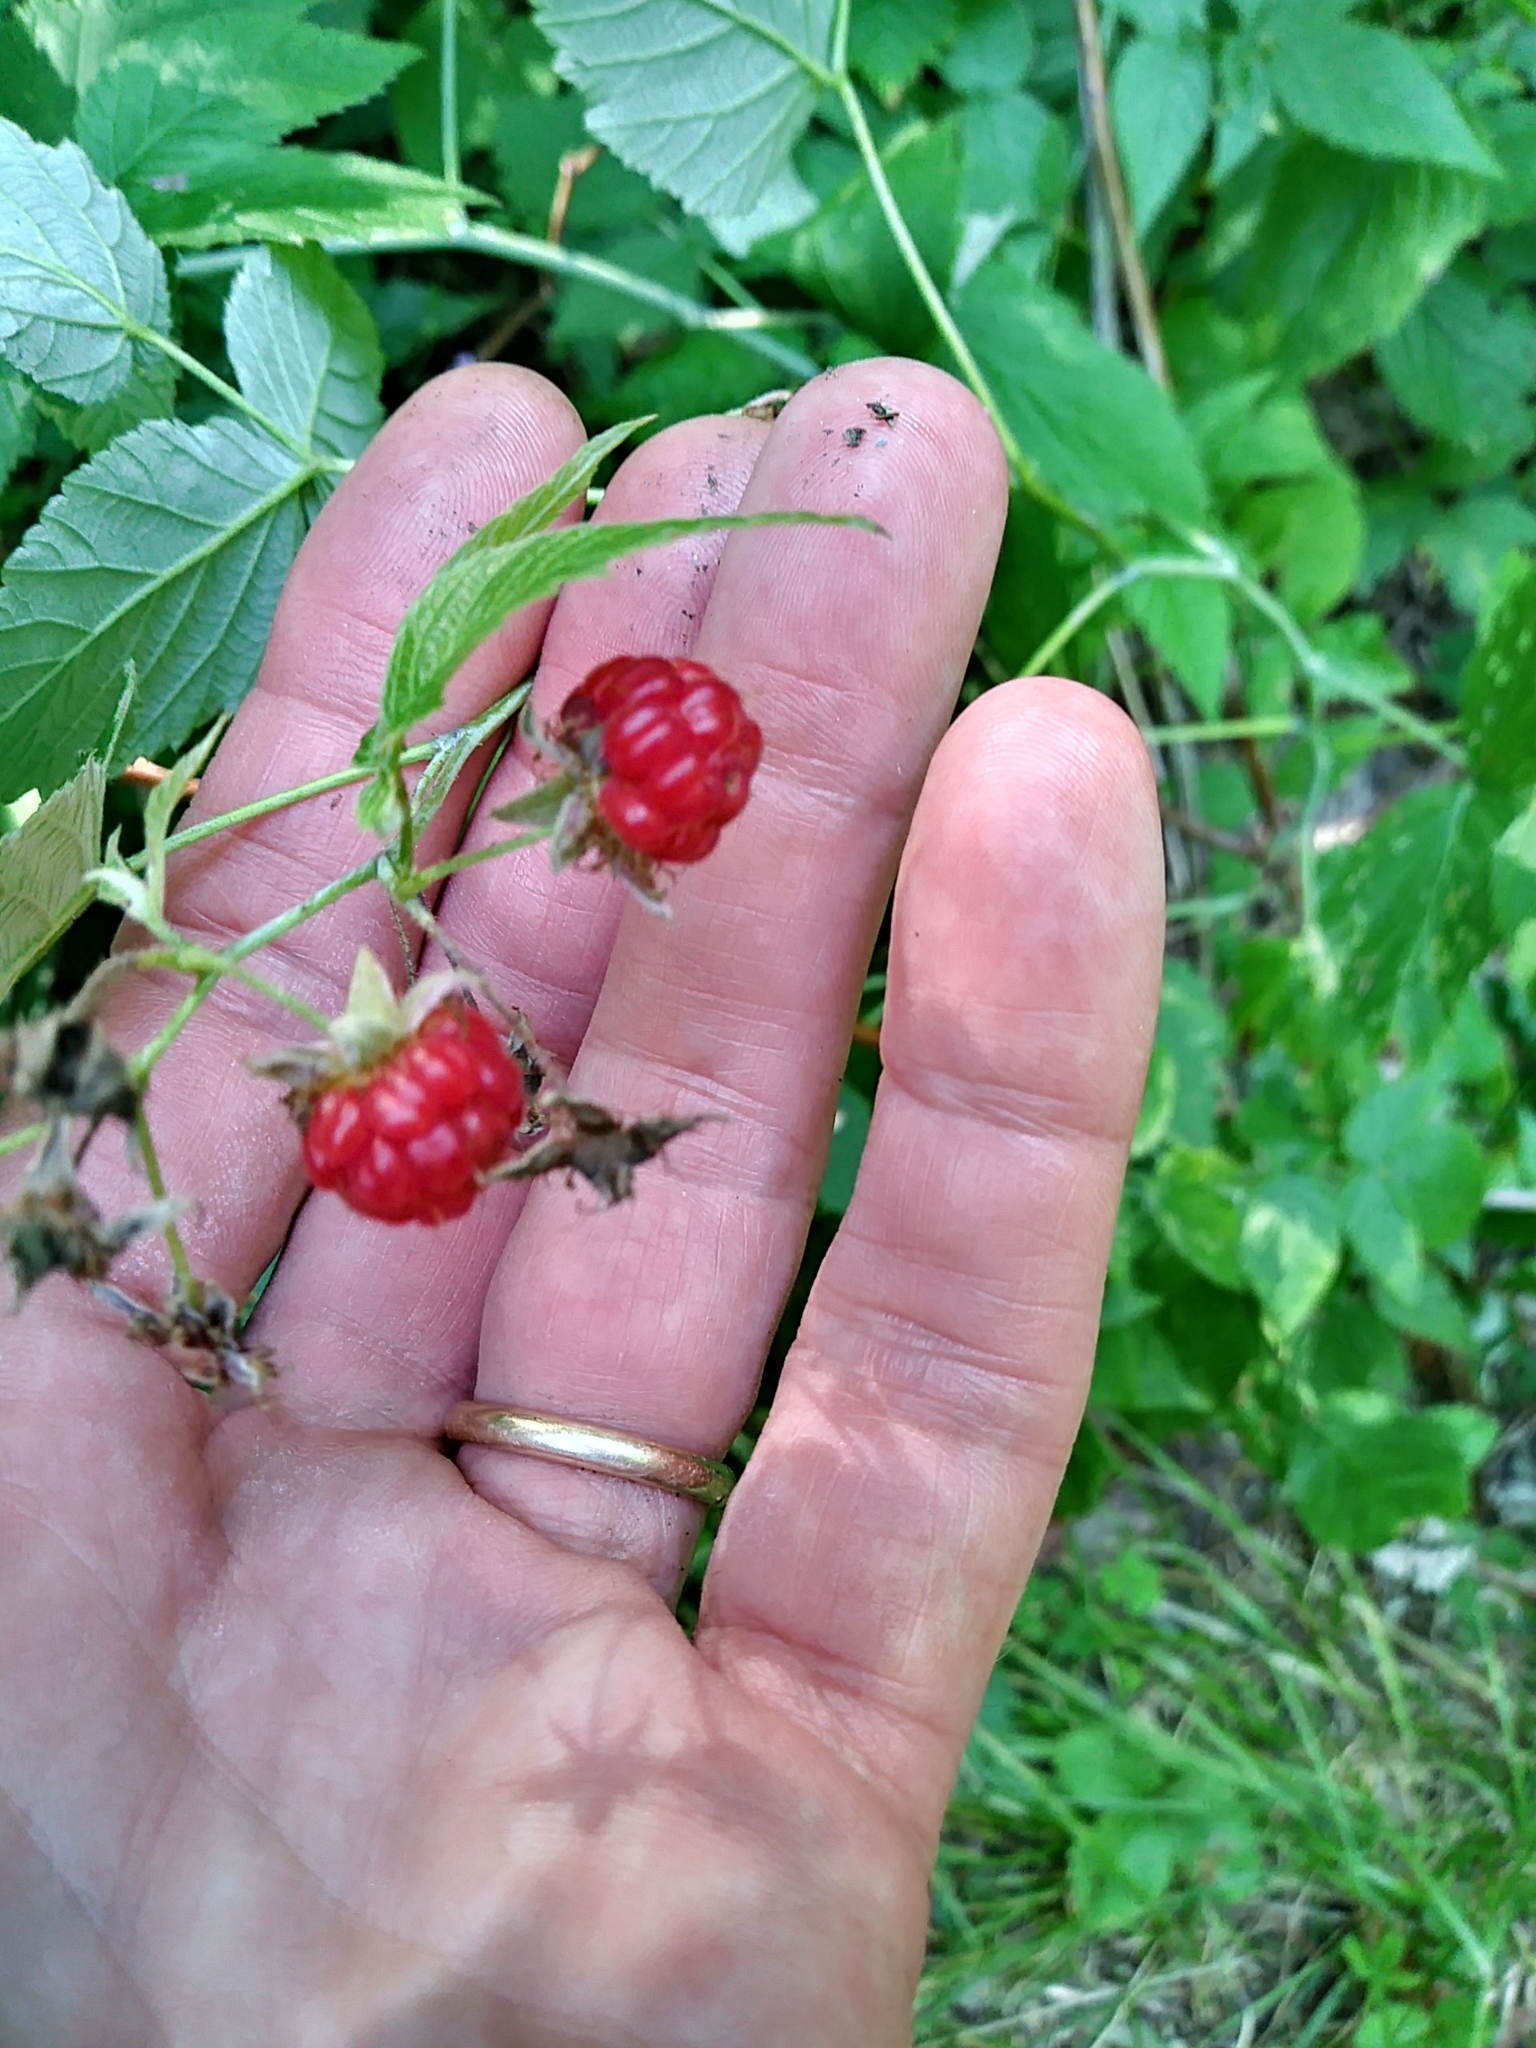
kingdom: Plantae
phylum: Tracheophyta
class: Magnoliopsida
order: Rosales
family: Rosaceae
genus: Rubus
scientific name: Rubus idaeus
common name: Raspberry
